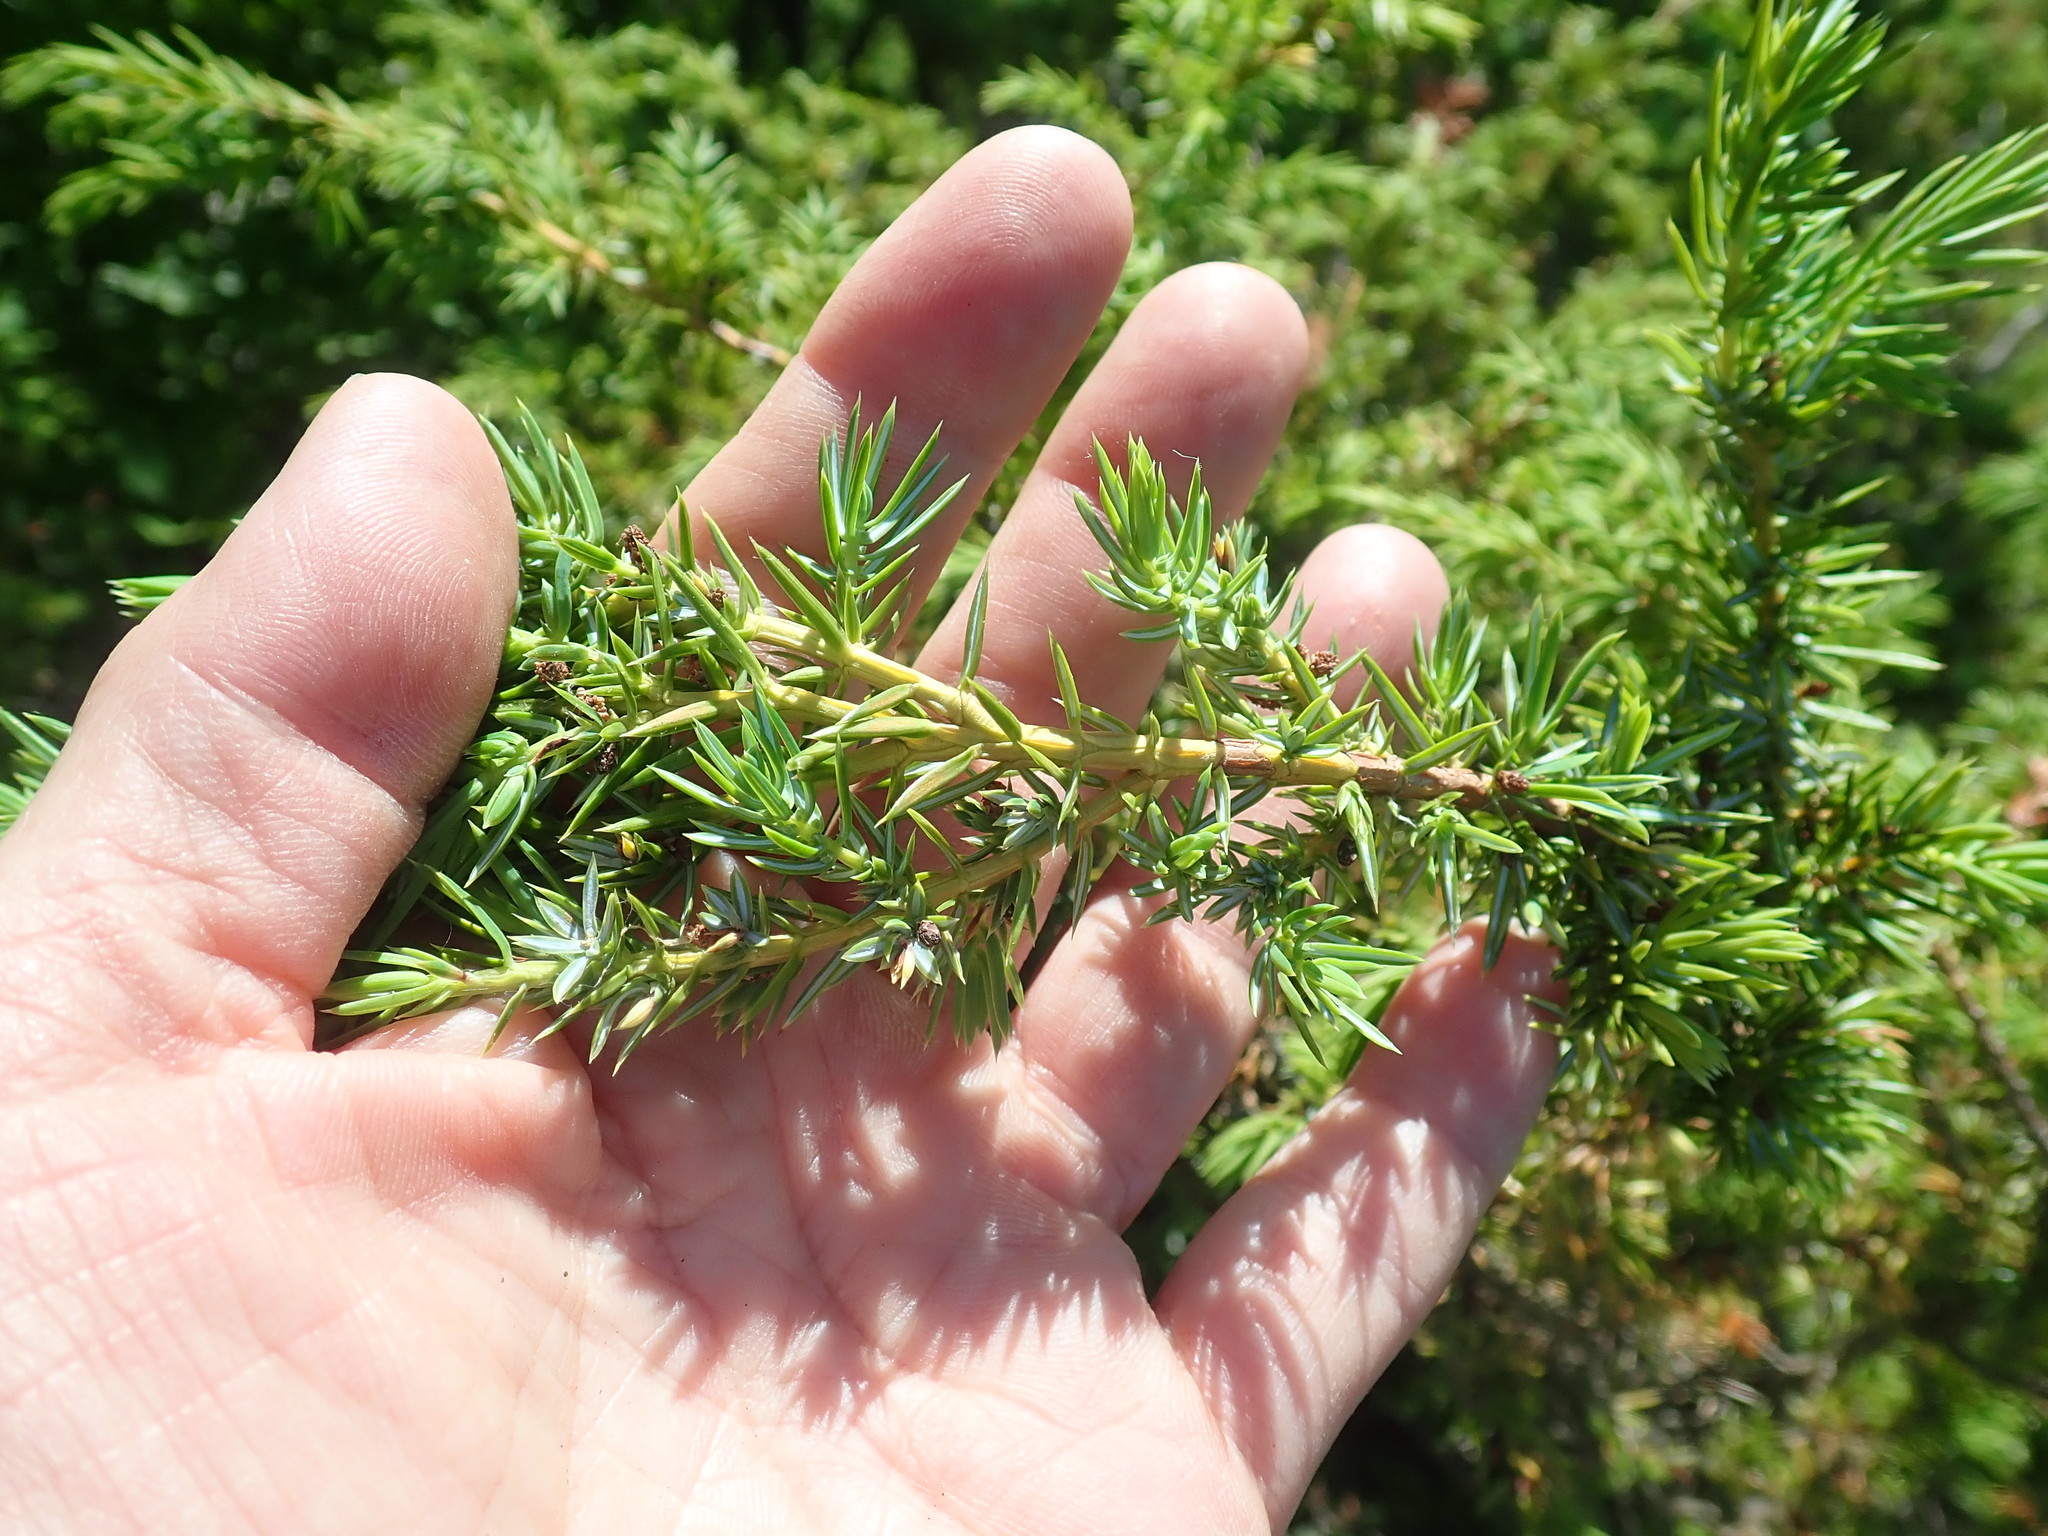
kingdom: Plantae
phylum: Tracheophyta
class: Pinopsida
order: Pinales
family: Cupressaceae
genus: Juniperus
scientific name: Juniperus communis
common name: Common juniper
